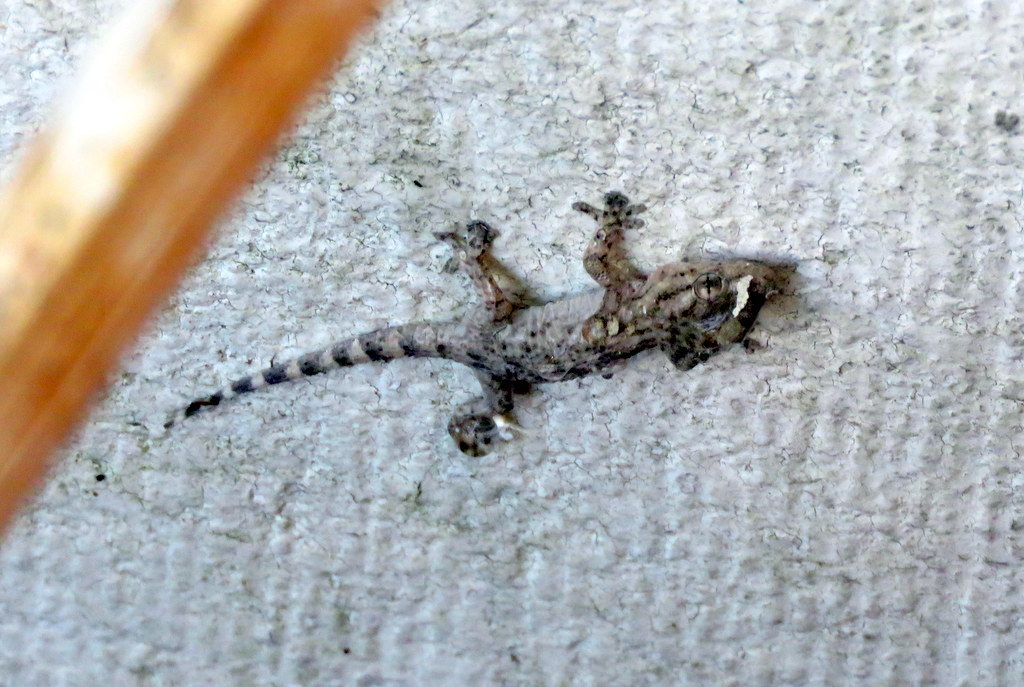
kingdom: Animalia
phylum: Chordata
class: Squamata
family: Phyllodactylidae
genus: Tarentola
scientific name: Tarentola mauritanica
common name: Moorish gecko
